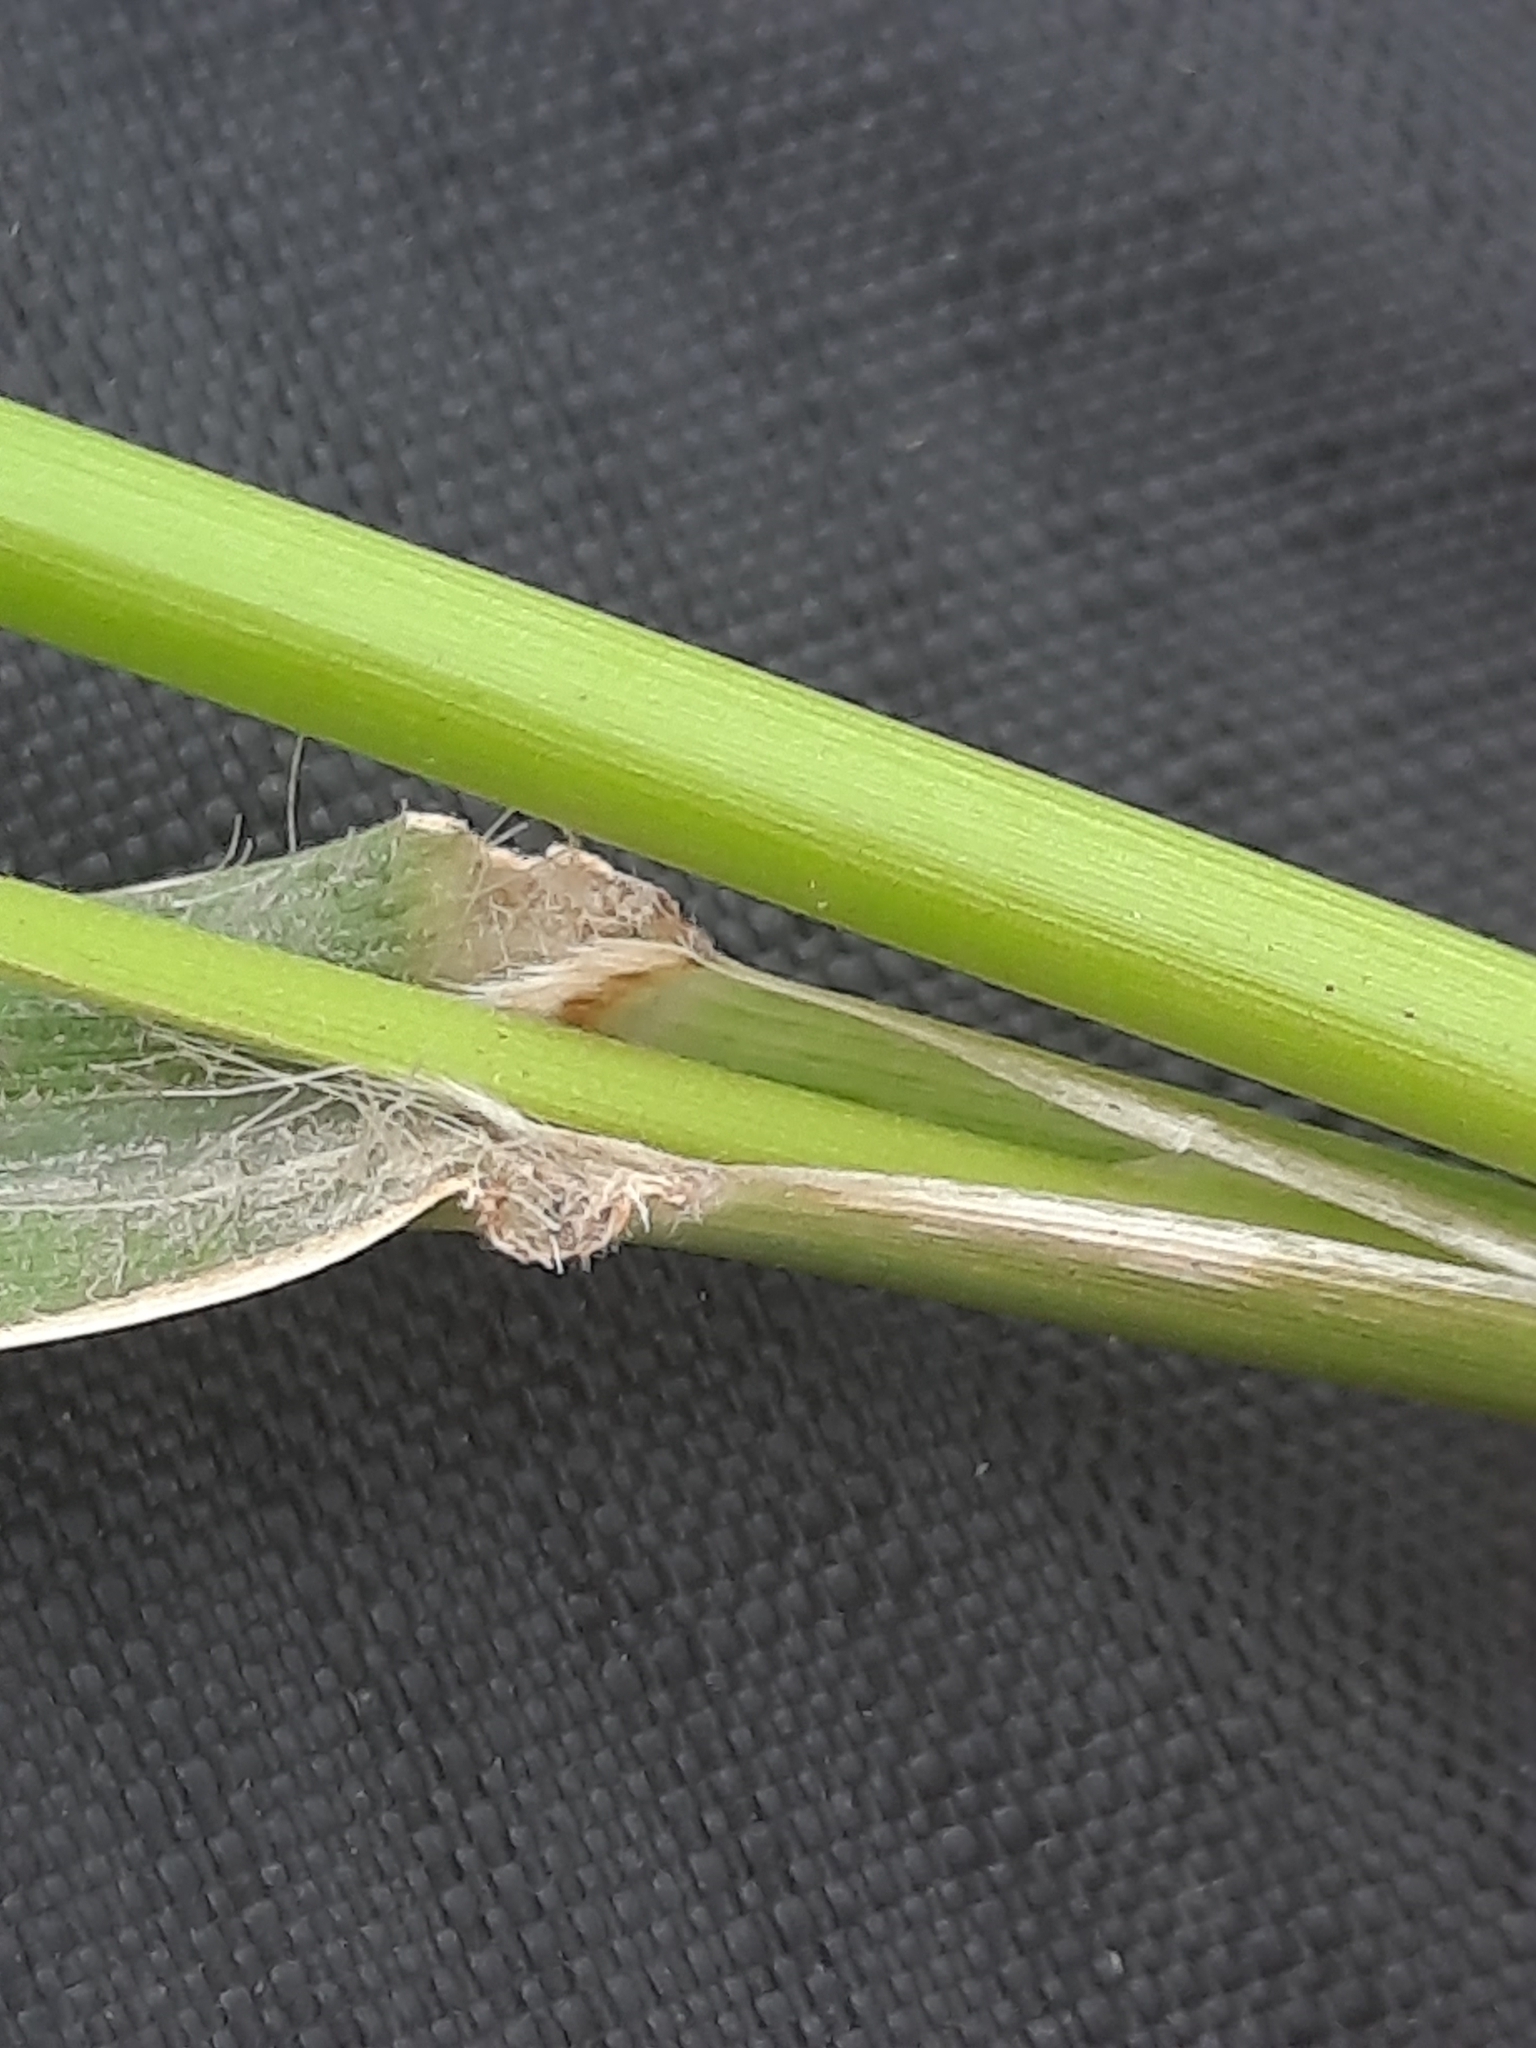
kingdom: Plantae
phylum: Tracheophyta
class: Liliopsida
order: Poales
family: Poaceae
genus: Megathyrsus
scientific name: Megathyrsus maximus
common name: Guineagrass
